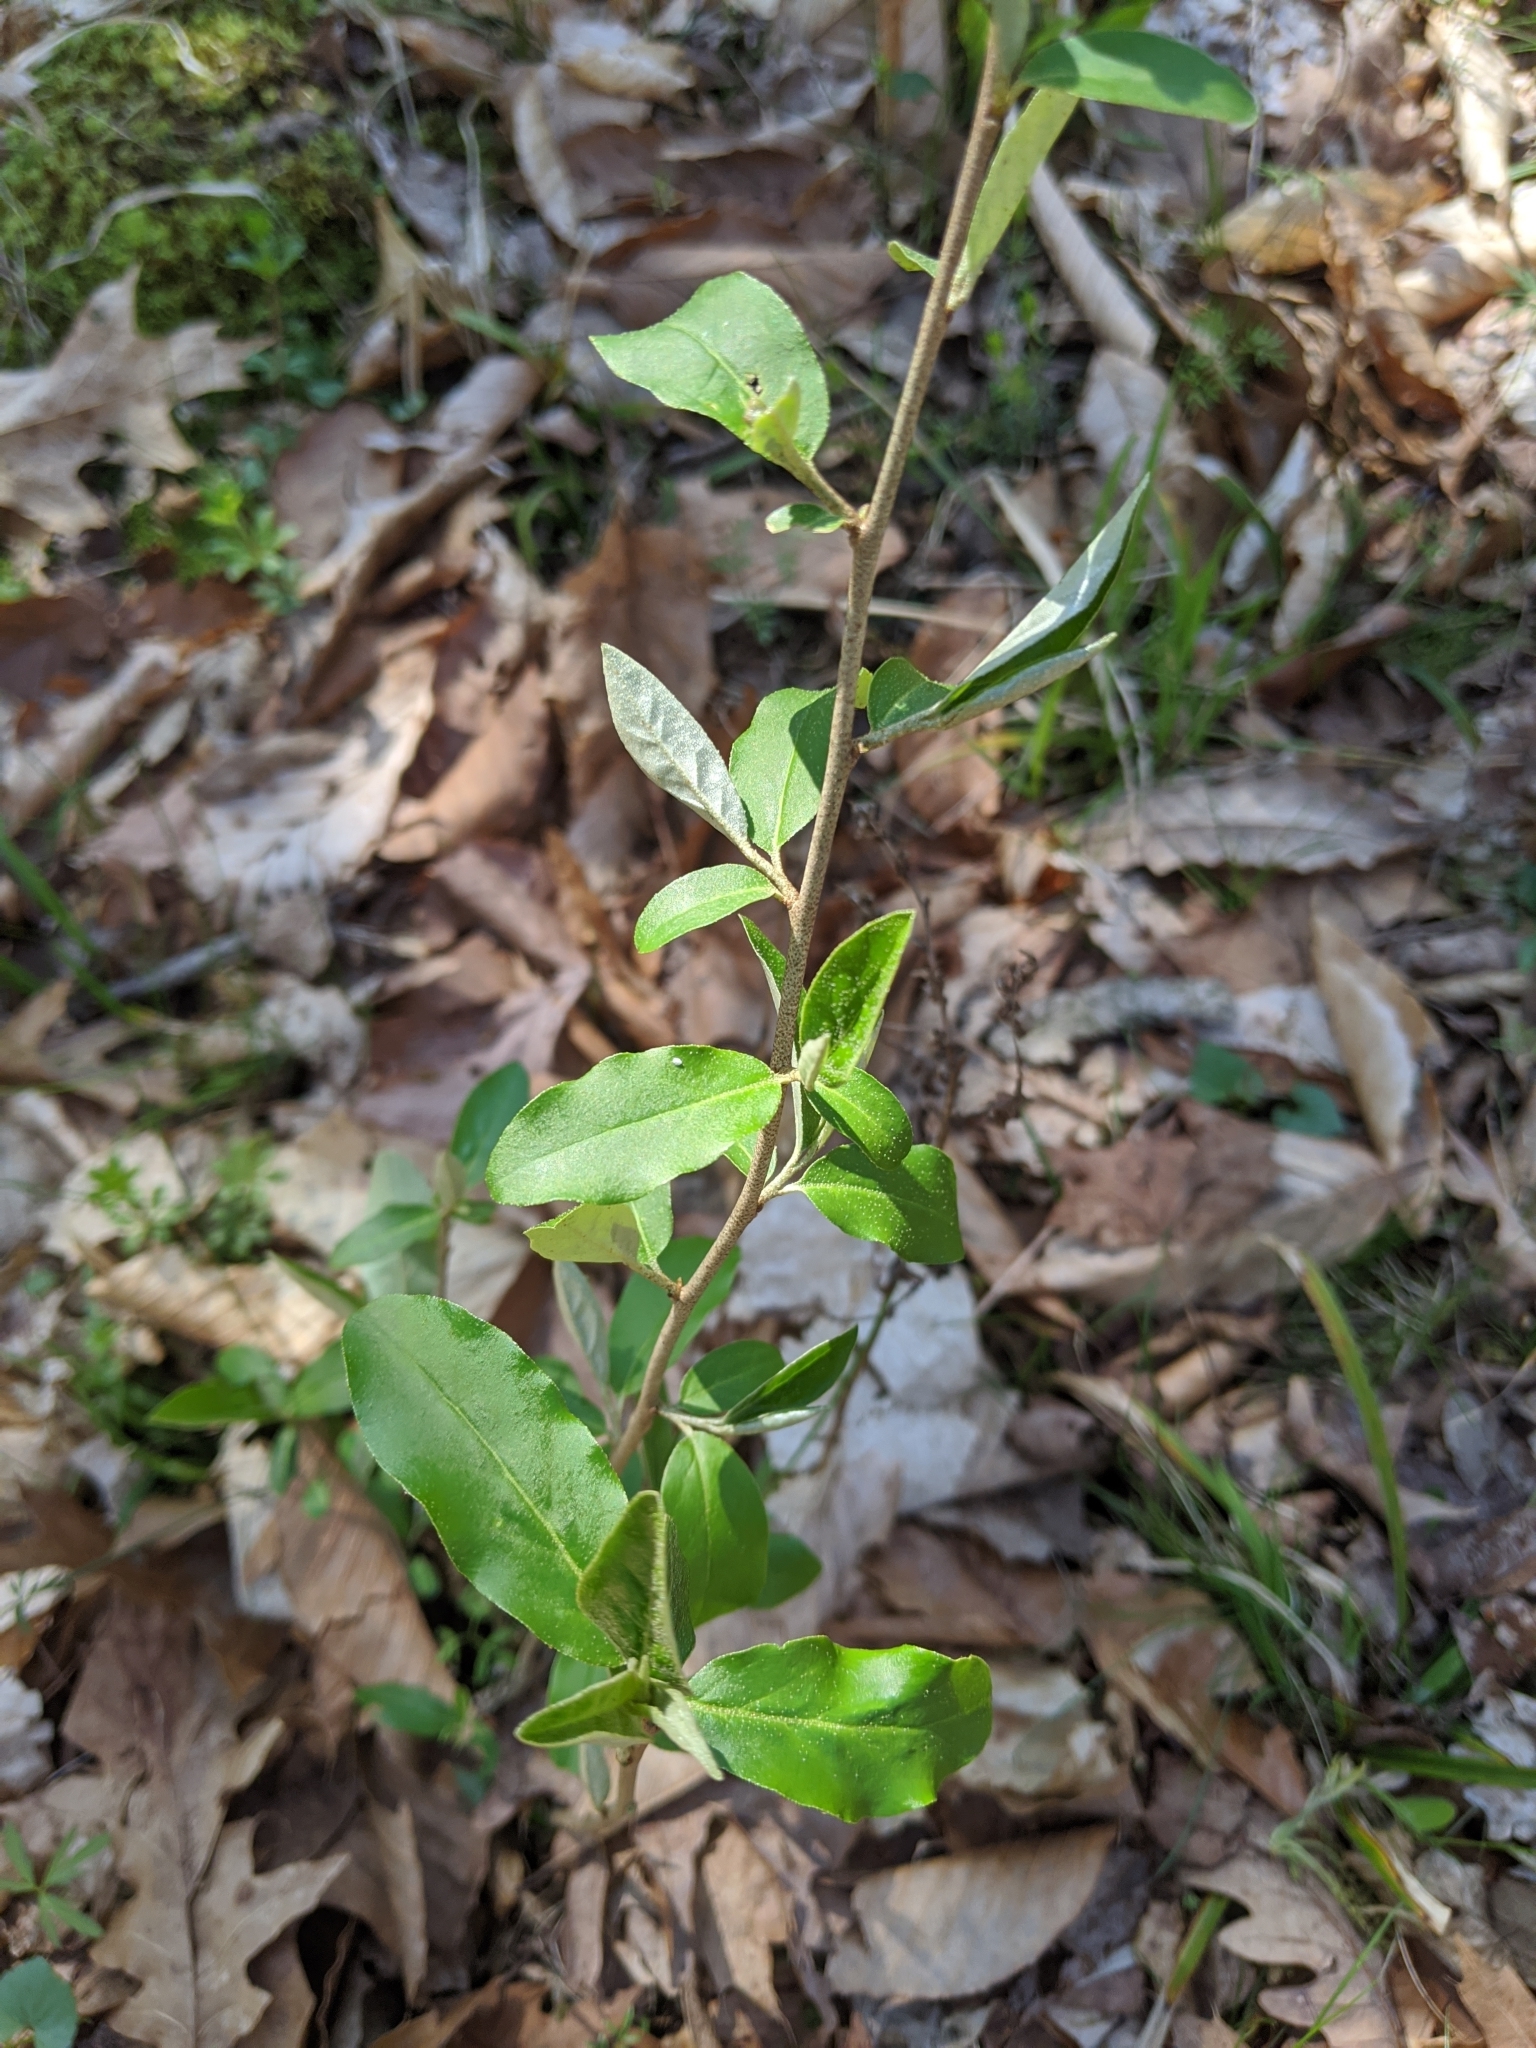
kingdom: Plantae
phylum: Tracheophyta
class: Magnoliopsida
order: Rosales
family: Elaeagnaceae
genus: Elaeagnus
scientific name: Elaeagnus umbellata
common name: Autumn olive
